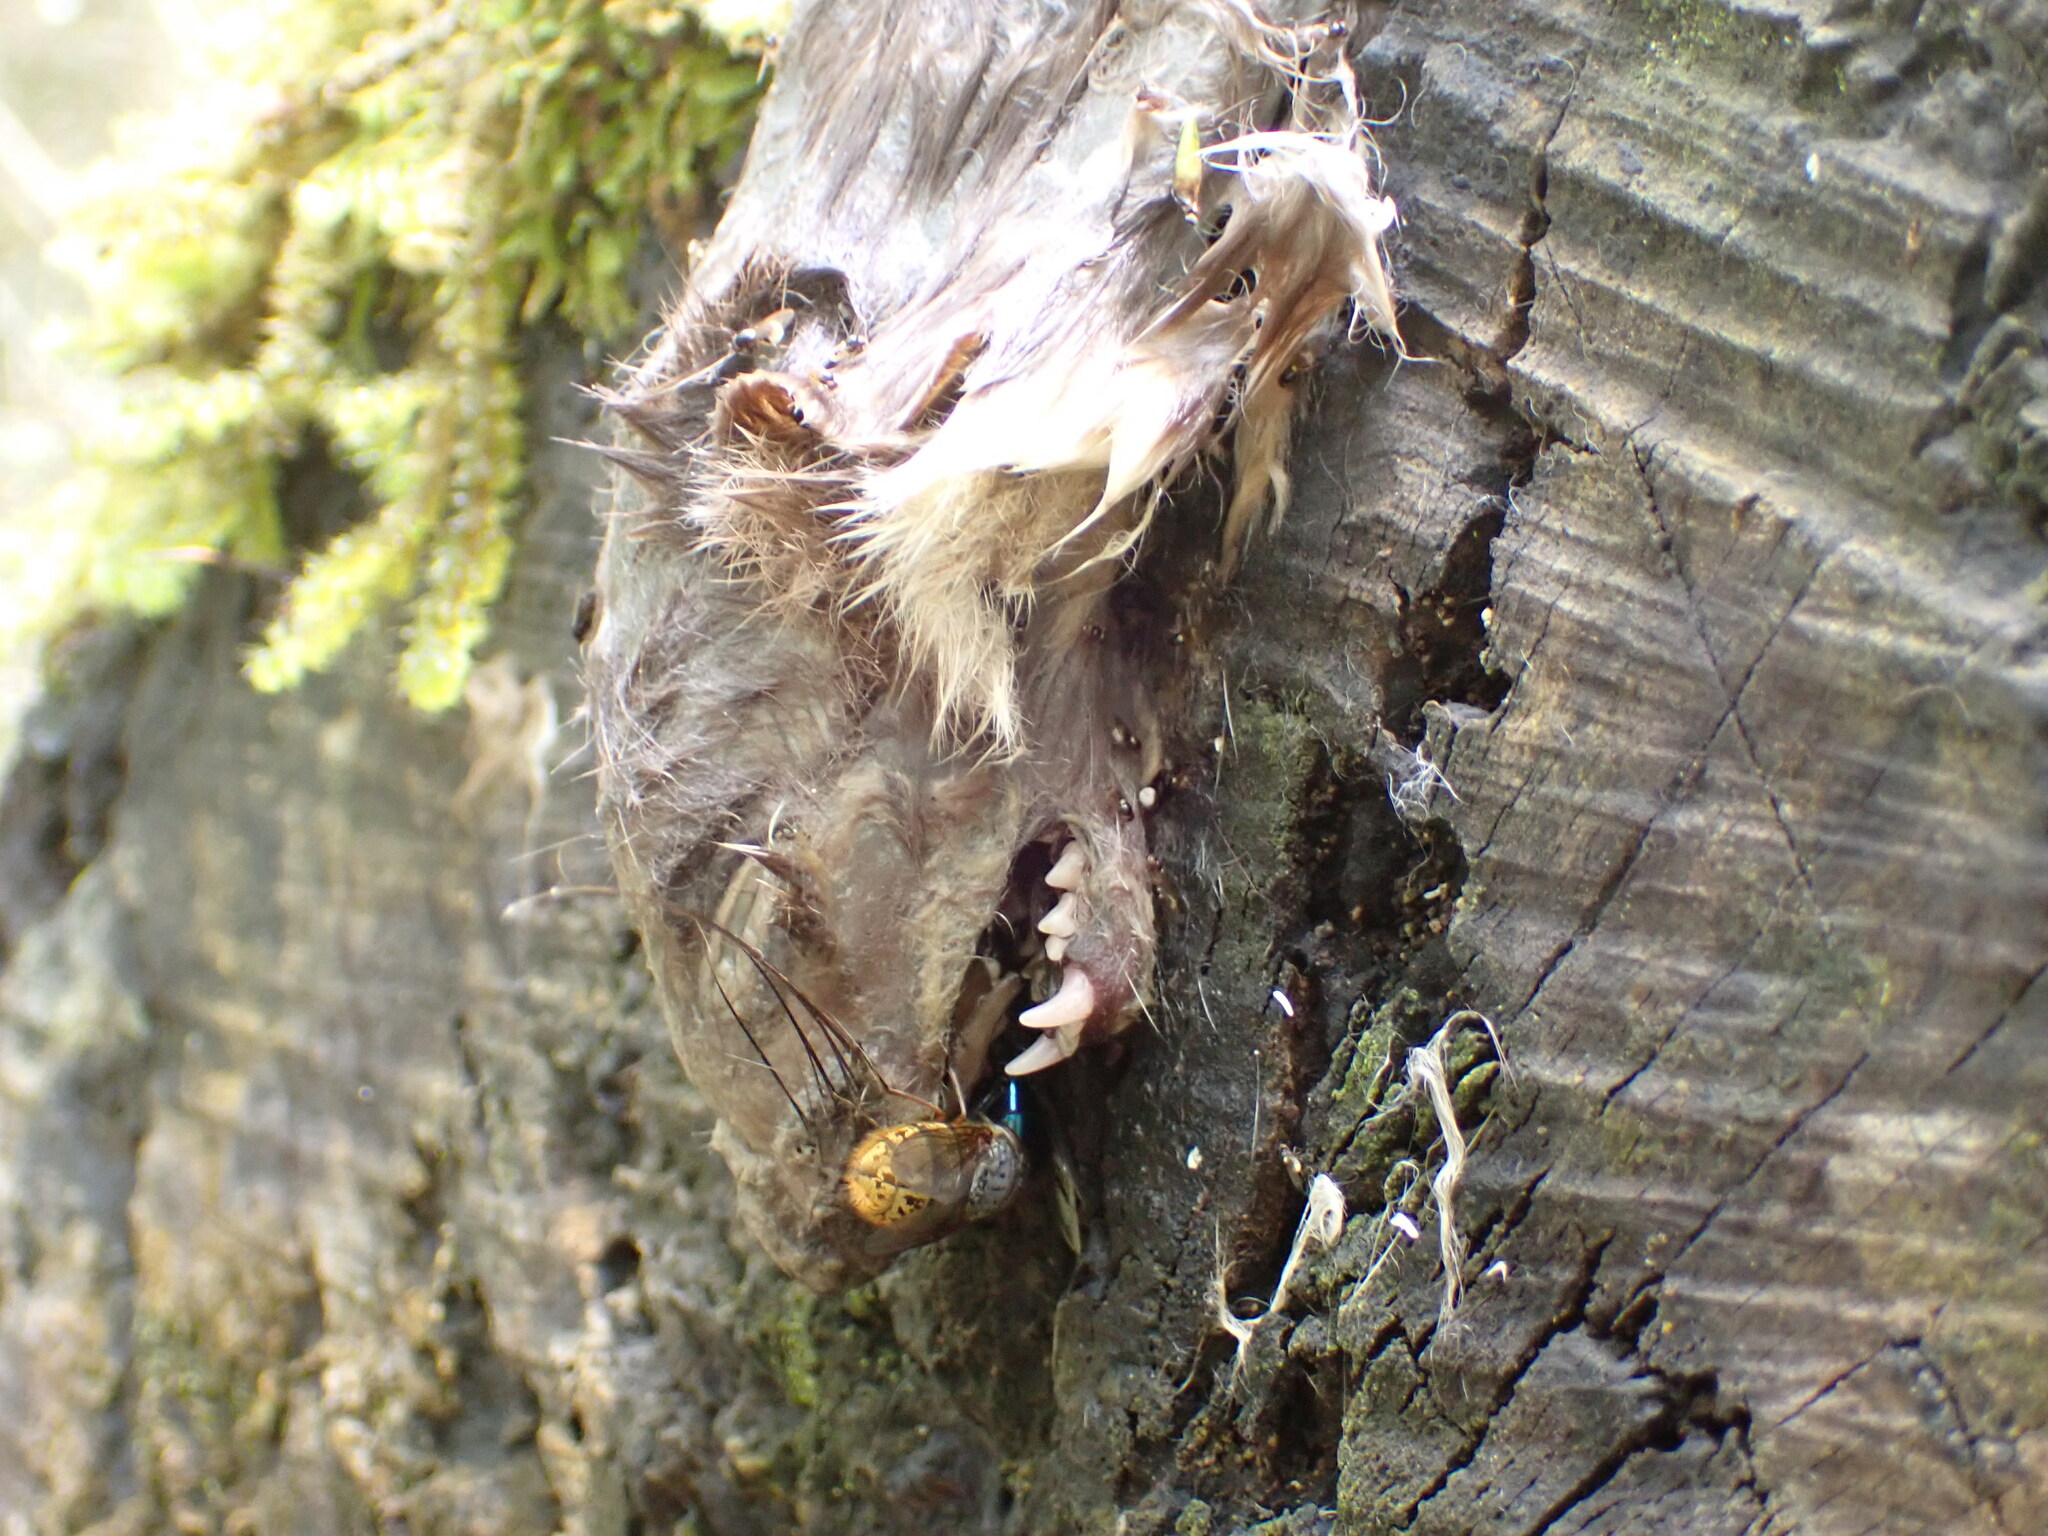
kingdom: Animalia
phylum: Chordata
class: Mammalia
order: Carnivora
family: Mustelidae
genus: Mustela
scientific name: Mustela erminea
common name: Stoat
